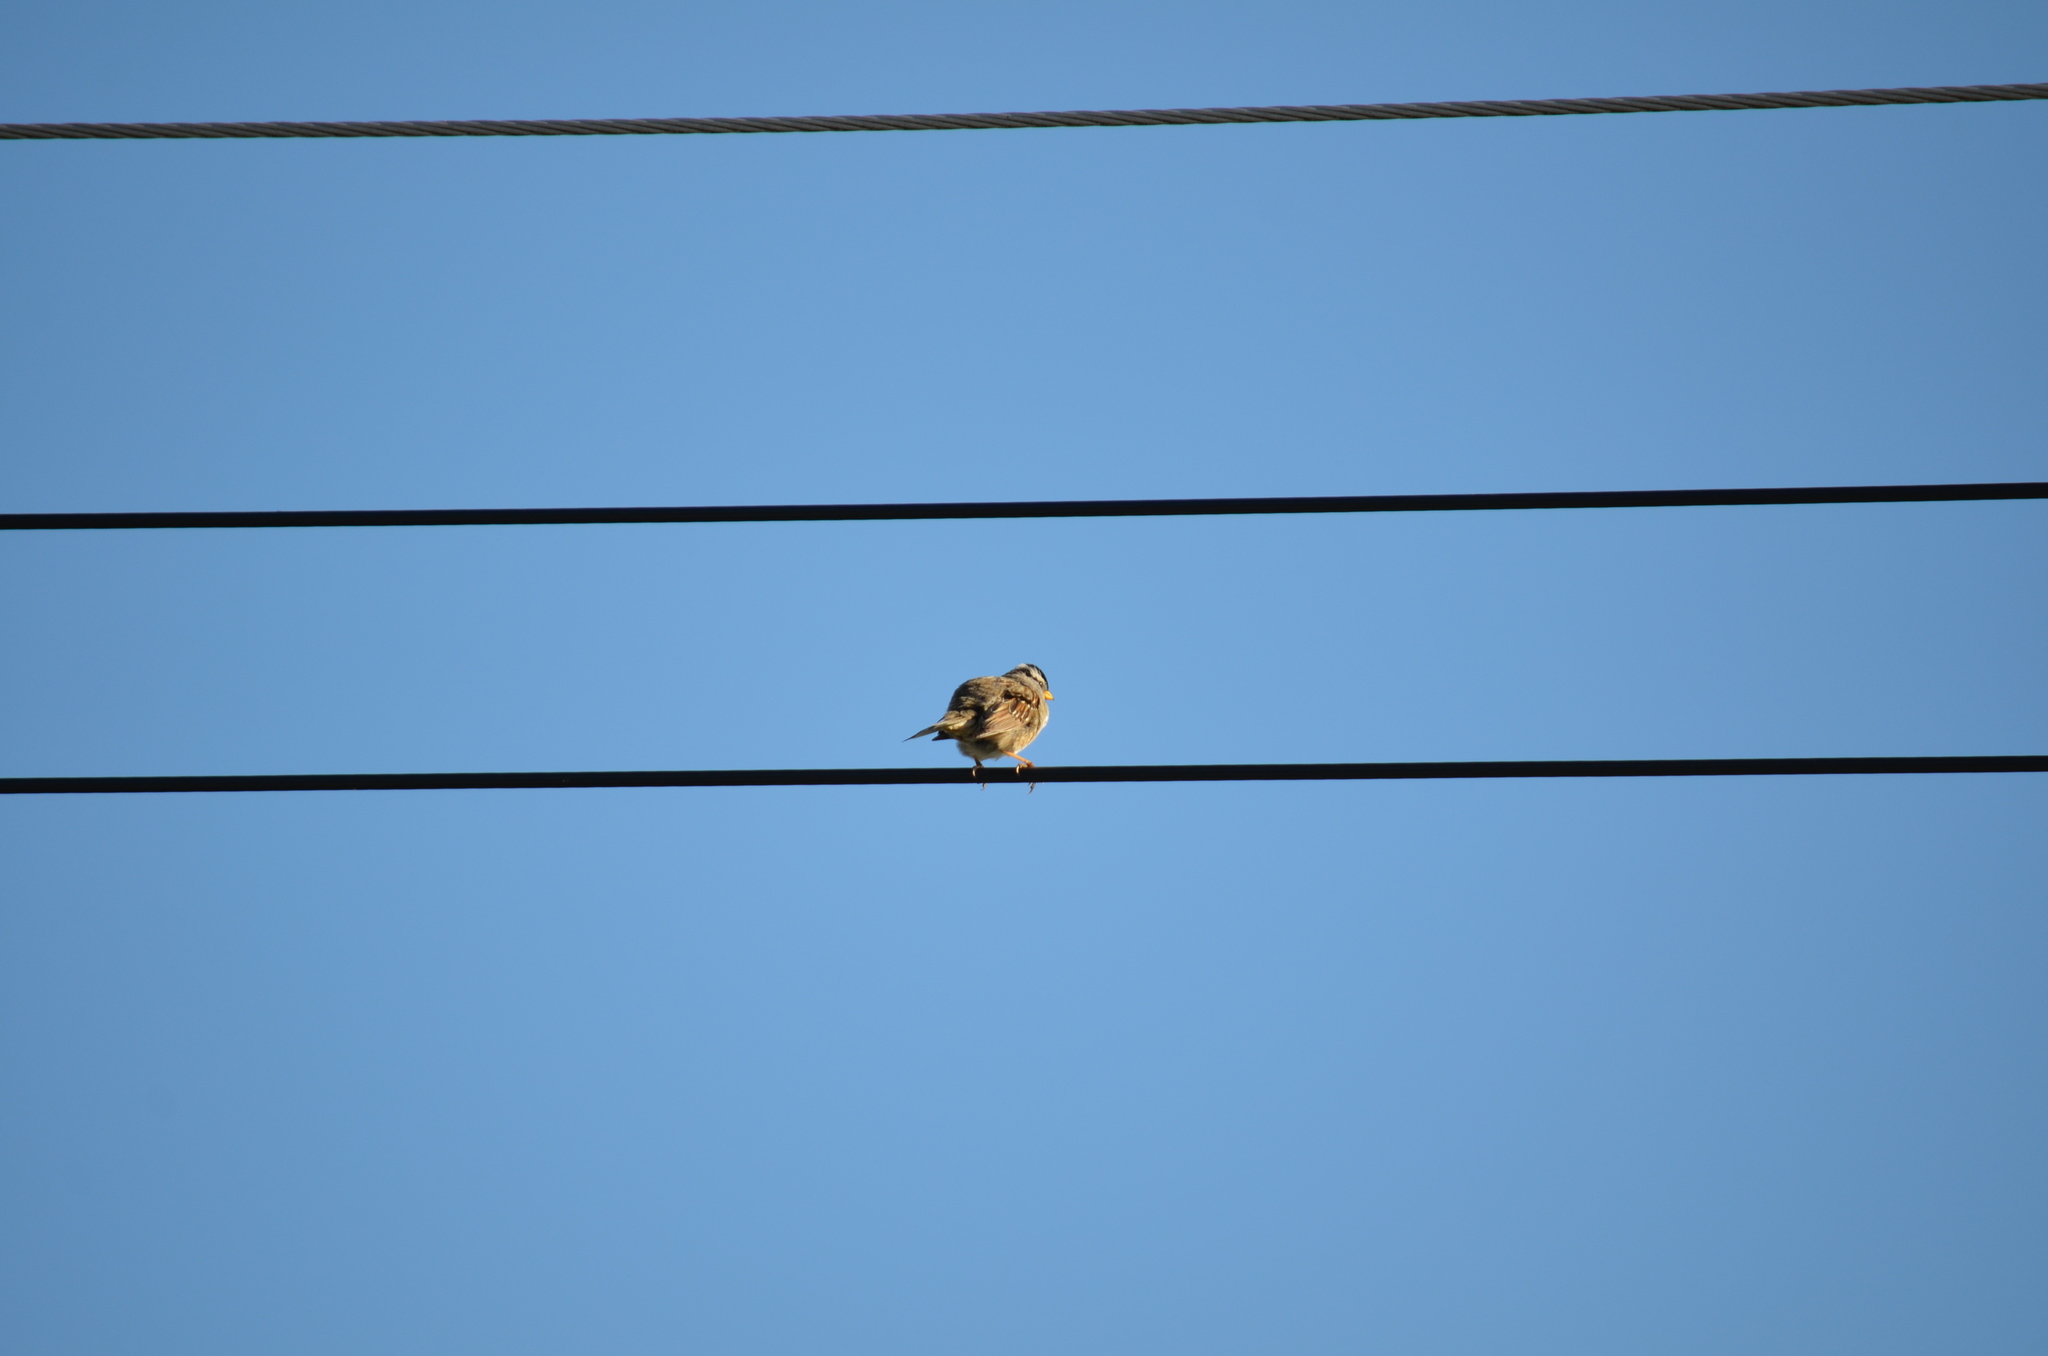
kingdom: Animalia
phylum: Chordata
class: Aves
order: Passeriformes
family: Passerellidae
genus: Zonotrichia
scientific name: Zonotrichia leucophrys
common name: White-crowned sparrow
